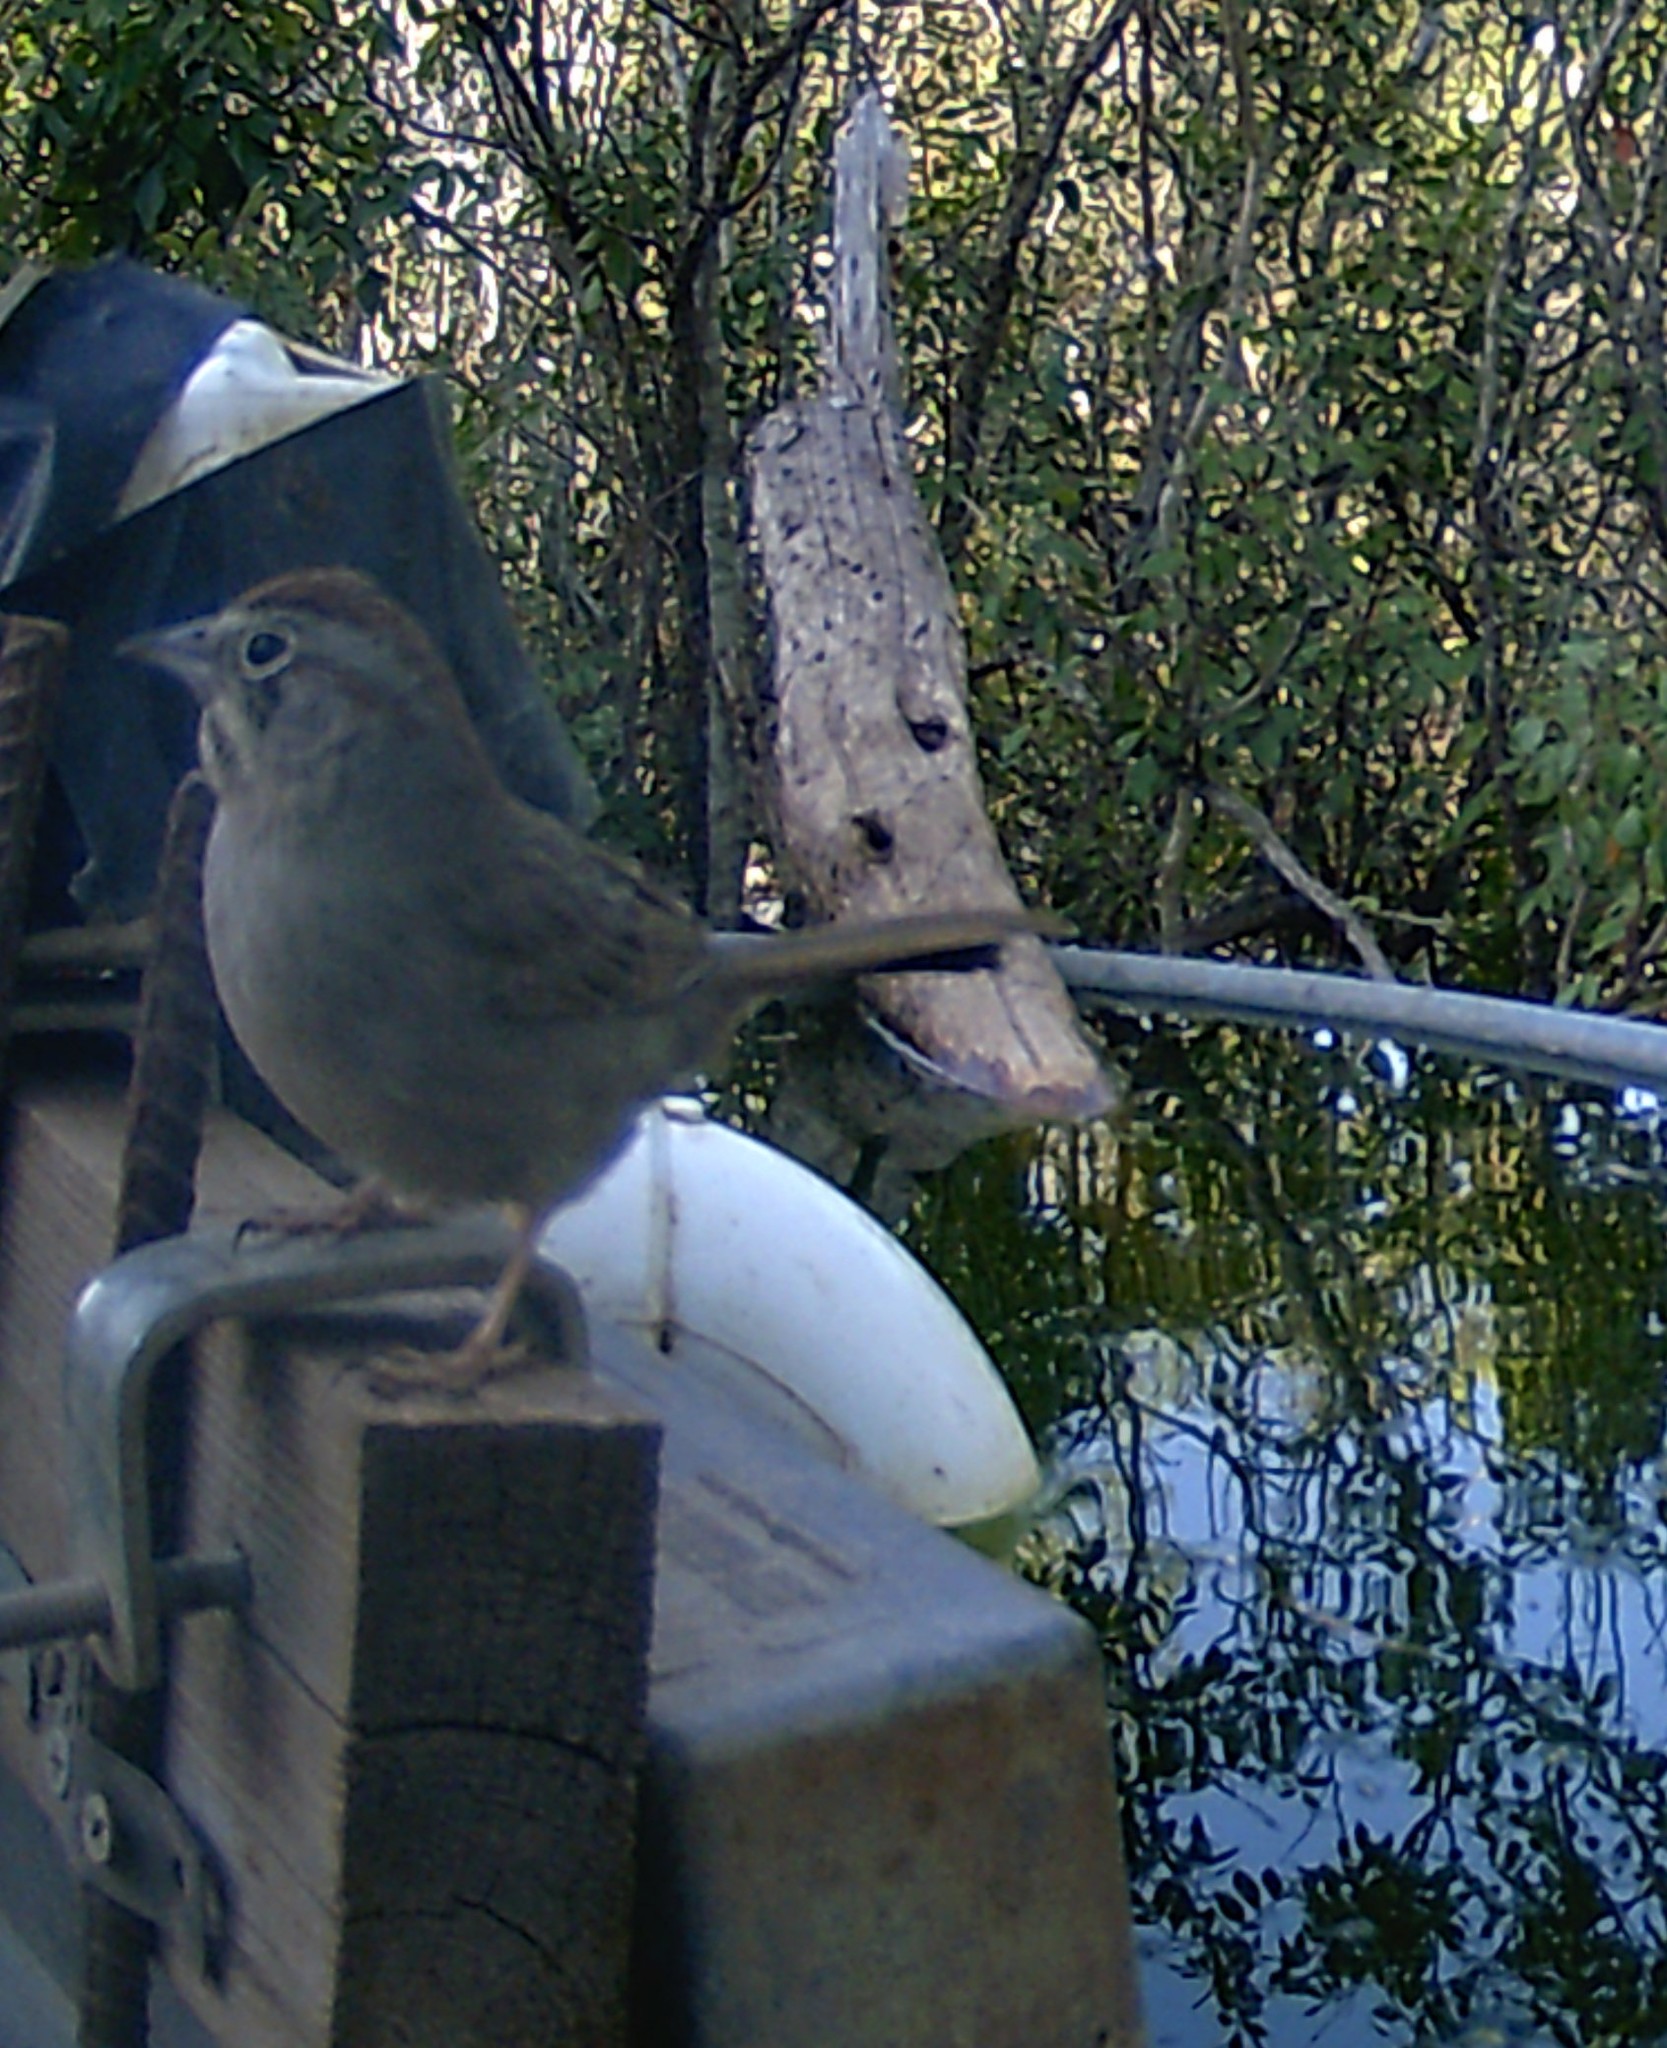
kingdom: Animalia
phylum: Chordata
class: Aves
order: Passeriformes
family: Passerellidae
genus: Aimophila
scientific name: Aimophila ruficeps
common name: Rufous-crowned sparrow
